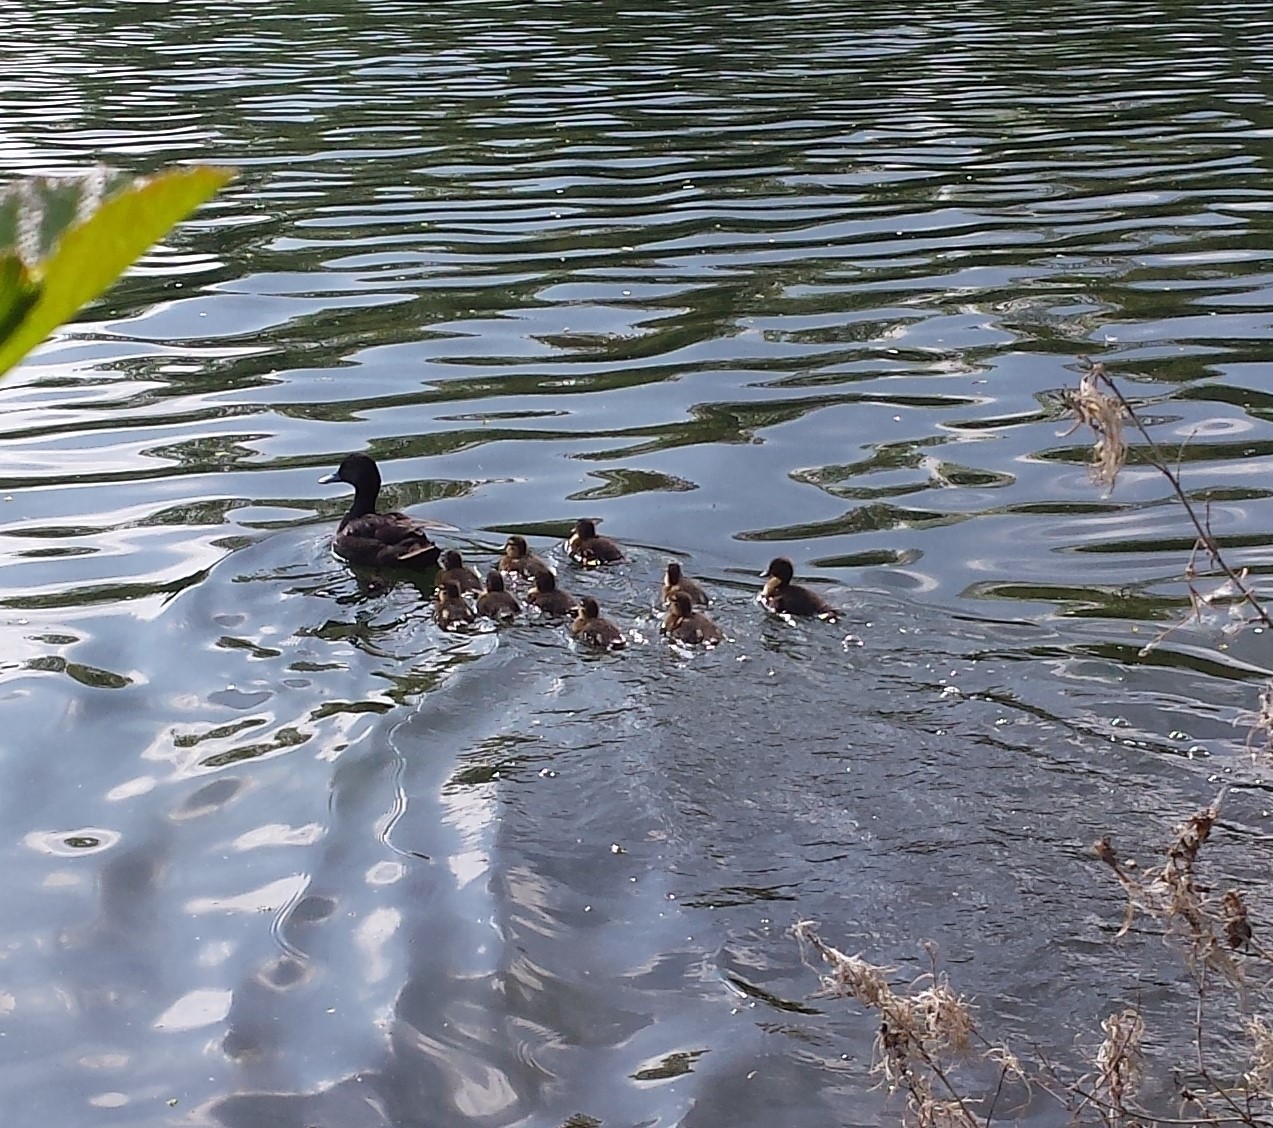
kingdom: Animalia
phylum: Chordata
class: Aves
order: Anseriformes
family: Anatidae
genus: Aythya
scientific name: Aythya fuligula
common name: Tufted duck
